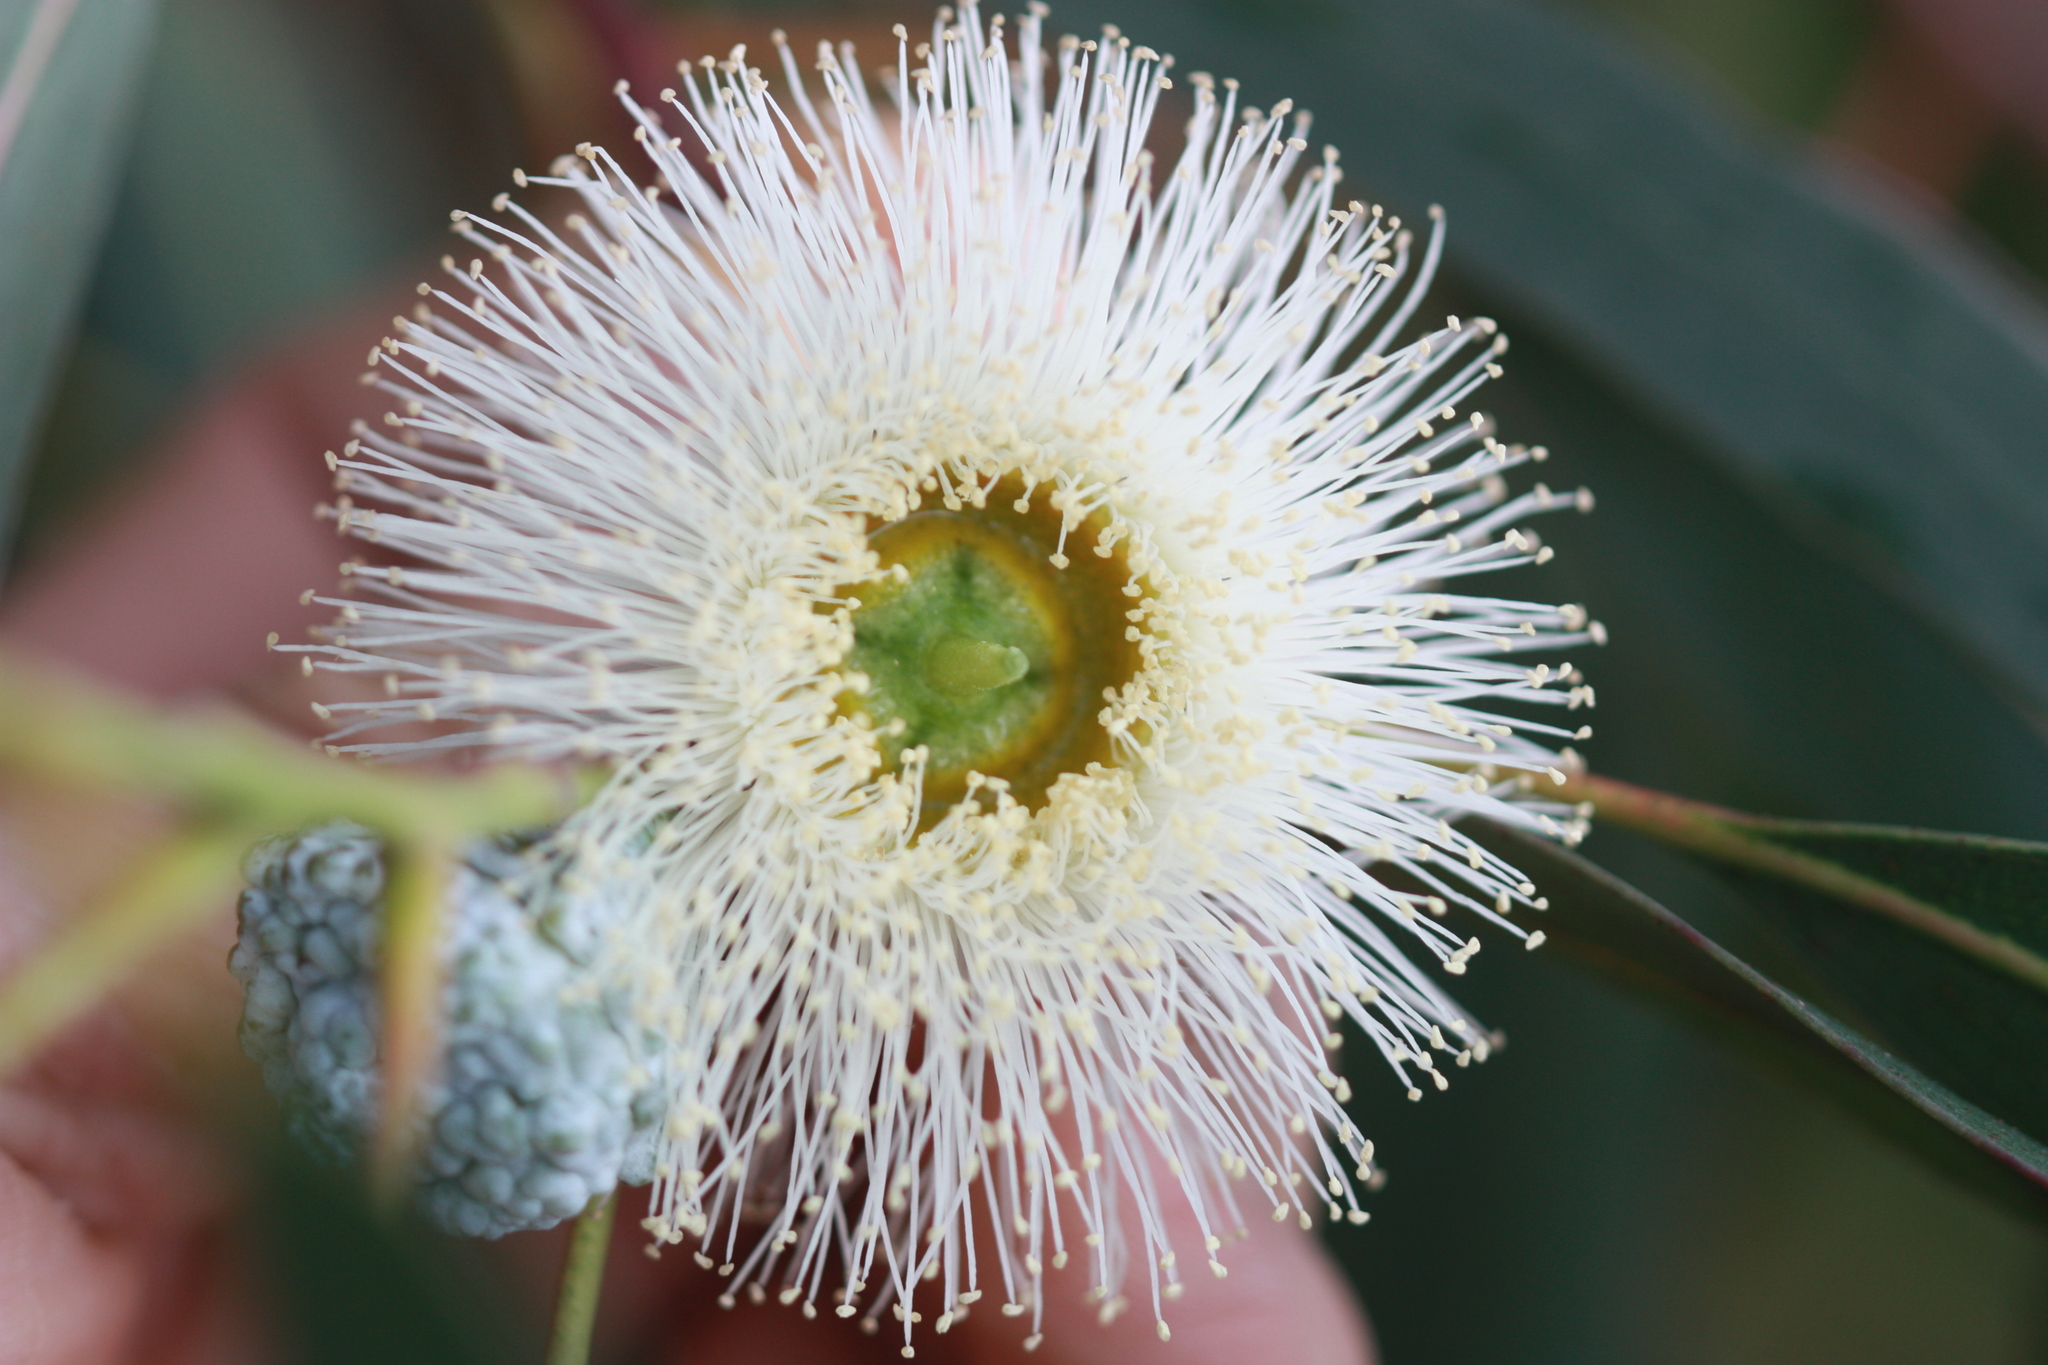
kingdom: Plantae
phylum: Tracheophyta
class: Magnoliopsida
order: Myrtales
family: Myrtaceae
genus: Eucalyptus
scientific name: Eucalyptus globulus
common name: Southern blue-gum
